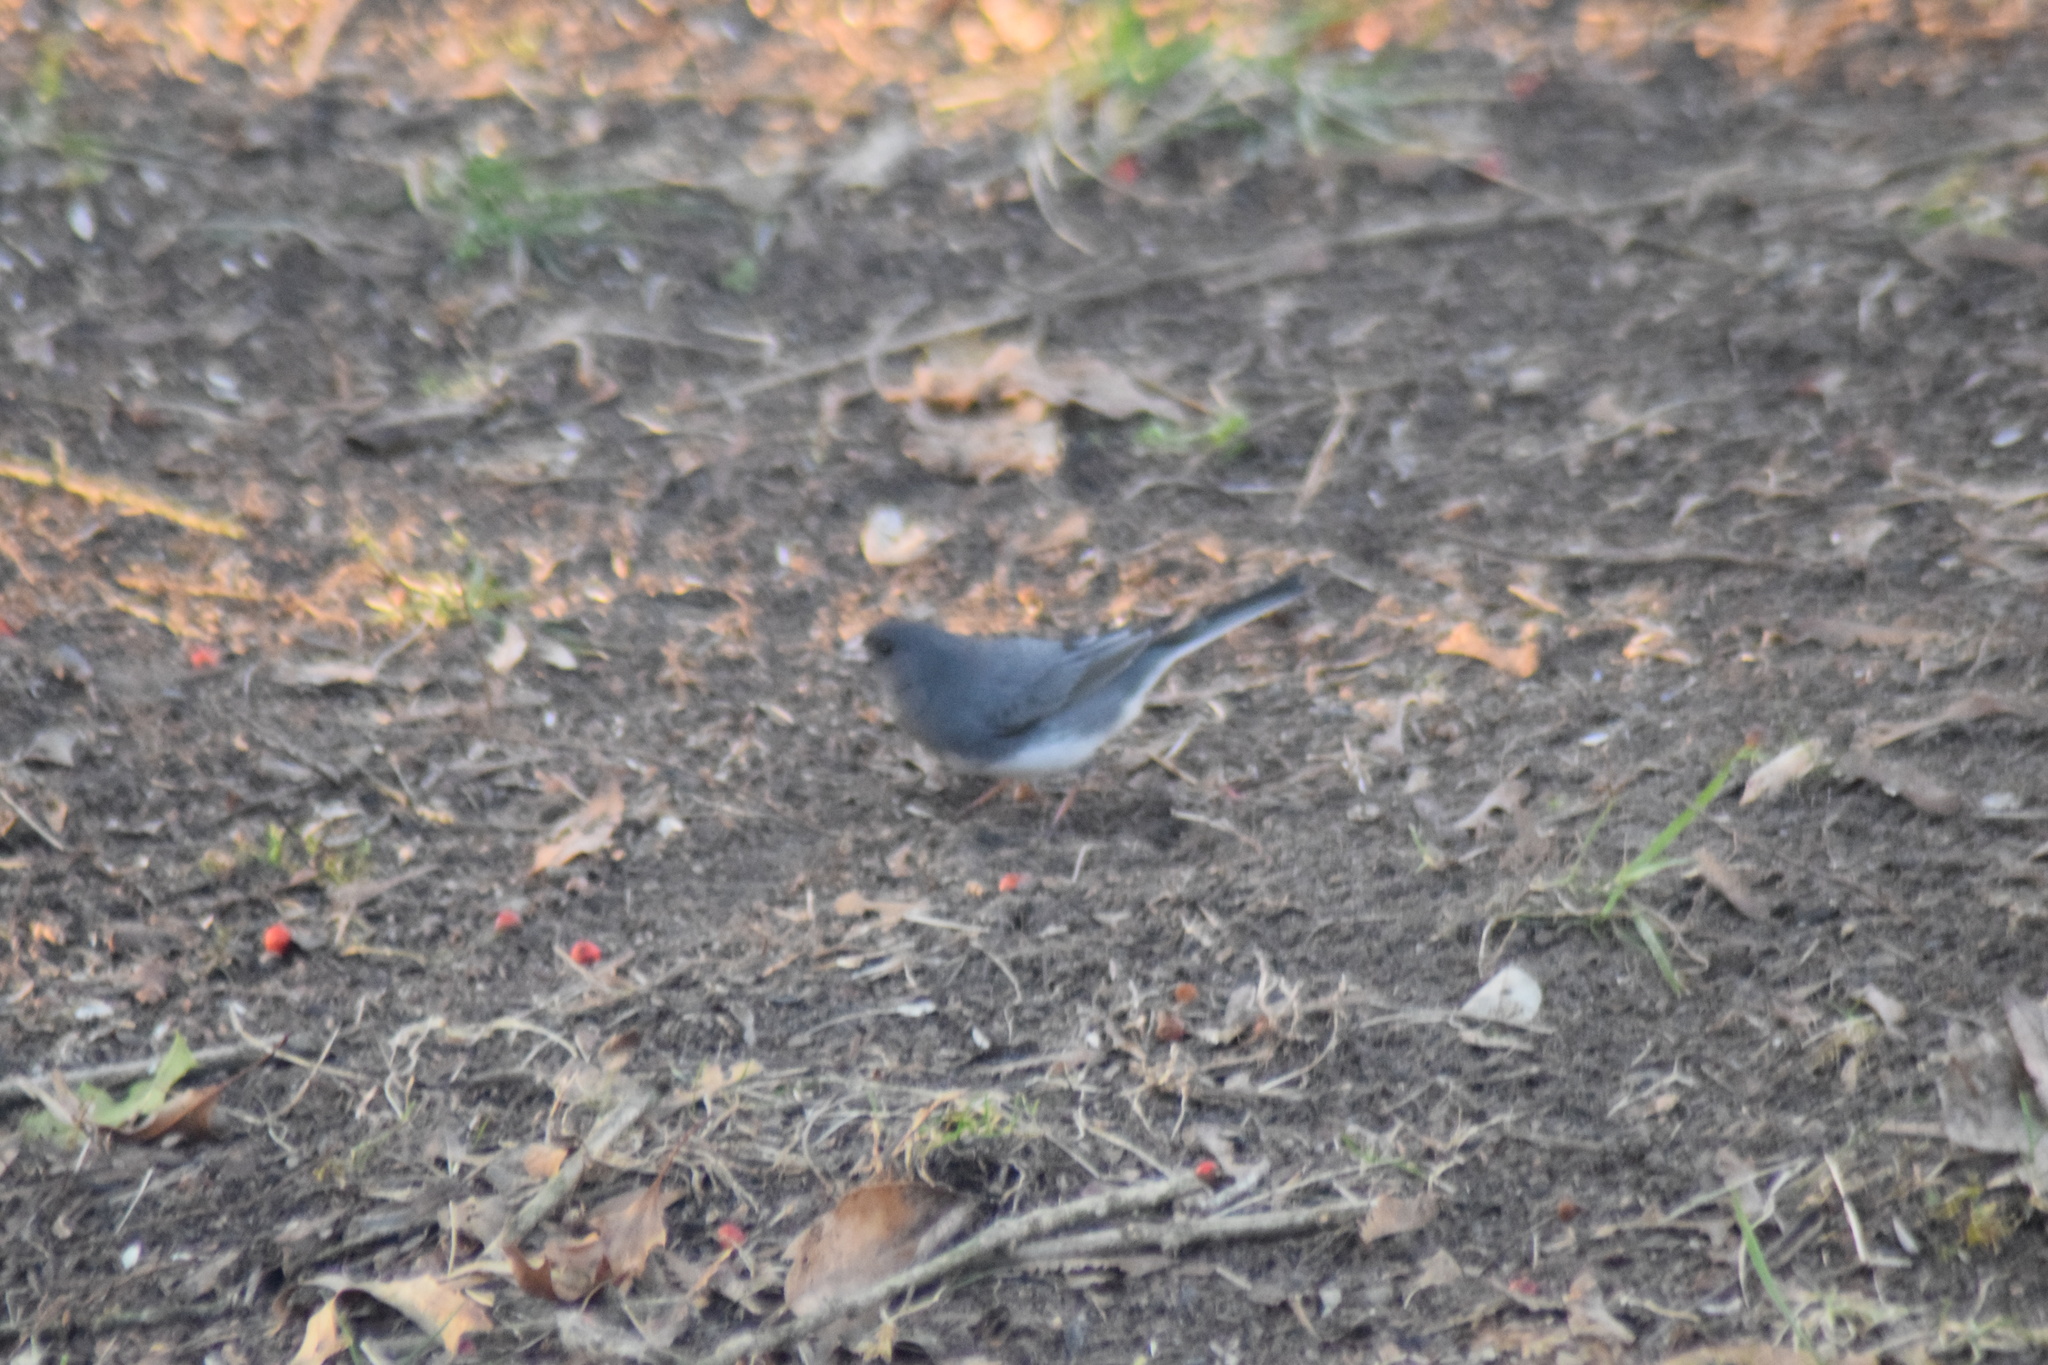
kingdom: Animalia
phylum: Chordata
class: Aves
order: Passeriformes
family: Passerellidae
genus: Junco
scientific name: Junco hyemalis
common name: Dark-eyed junco
